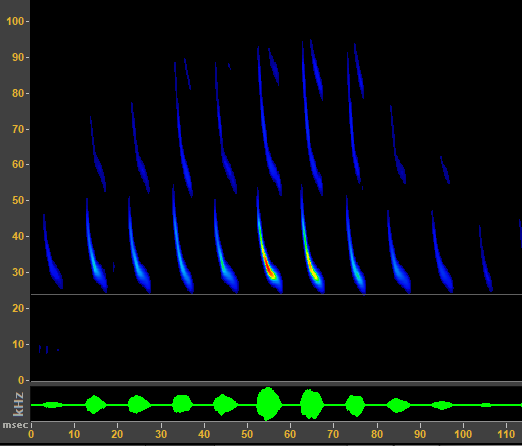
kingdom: Animalia
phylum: Chordata
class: Mammalia
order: Chiroptera
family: Vespertilionidae
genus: Lasionycteris
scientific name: Lasionycteris noctivagans
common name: Silver-haired bat
